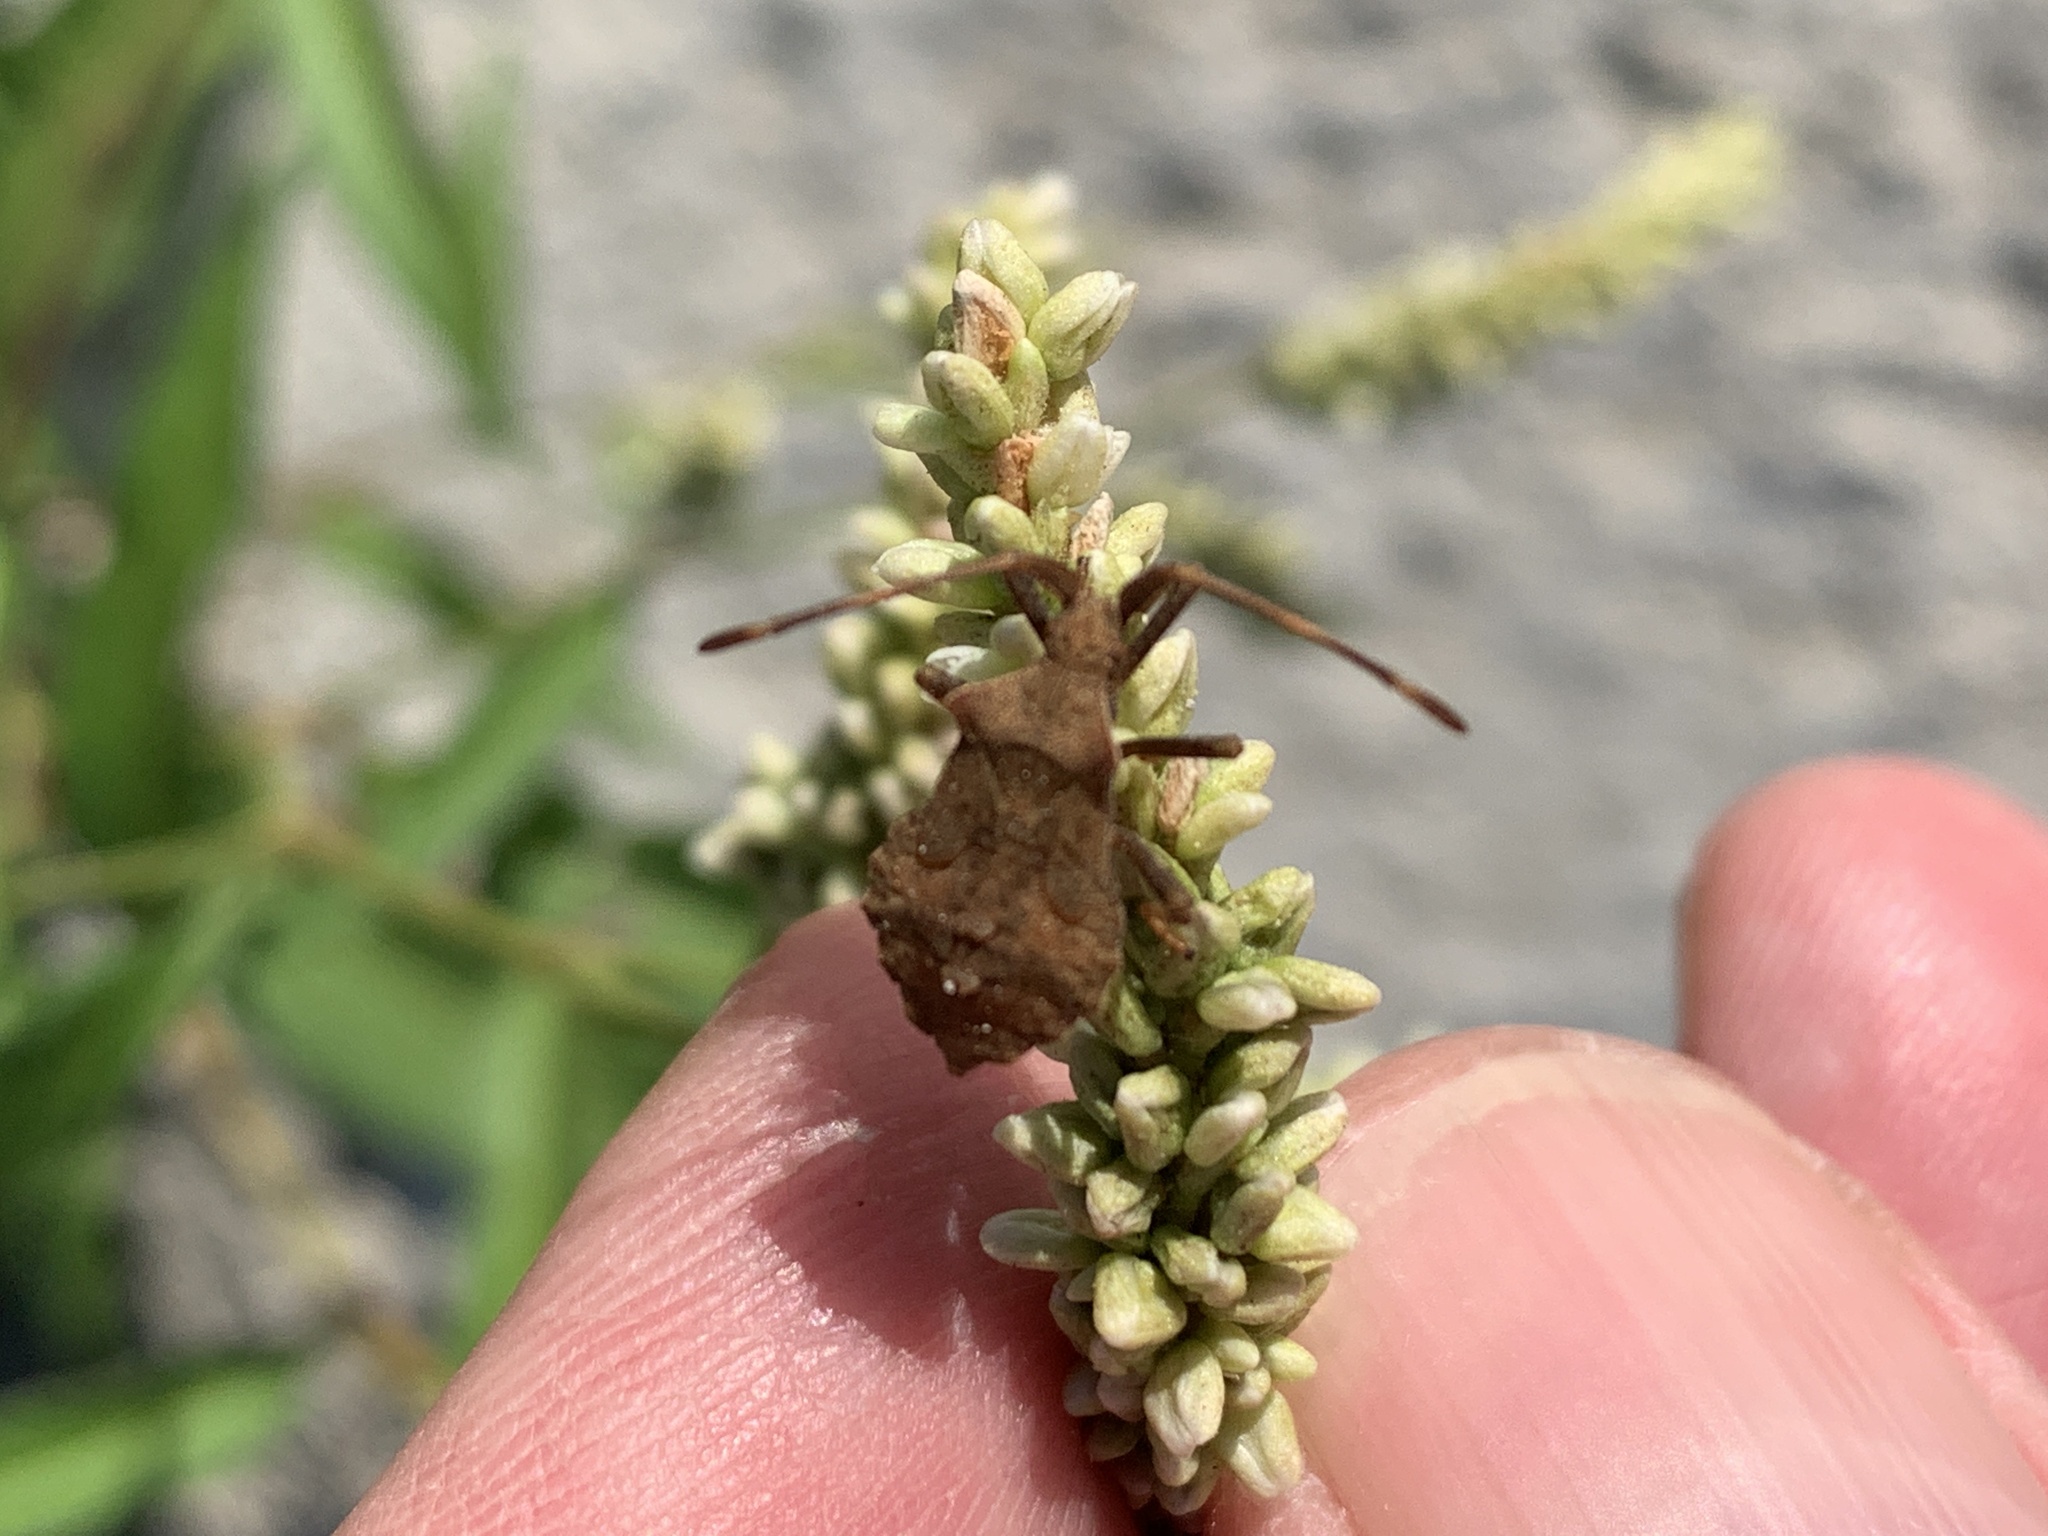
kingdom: Animalia
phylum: Arthropoda
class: Insecta
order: Hemiptera
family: Coreidae
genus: Coreus
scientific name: Coreus marginatus
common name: Dock bug
